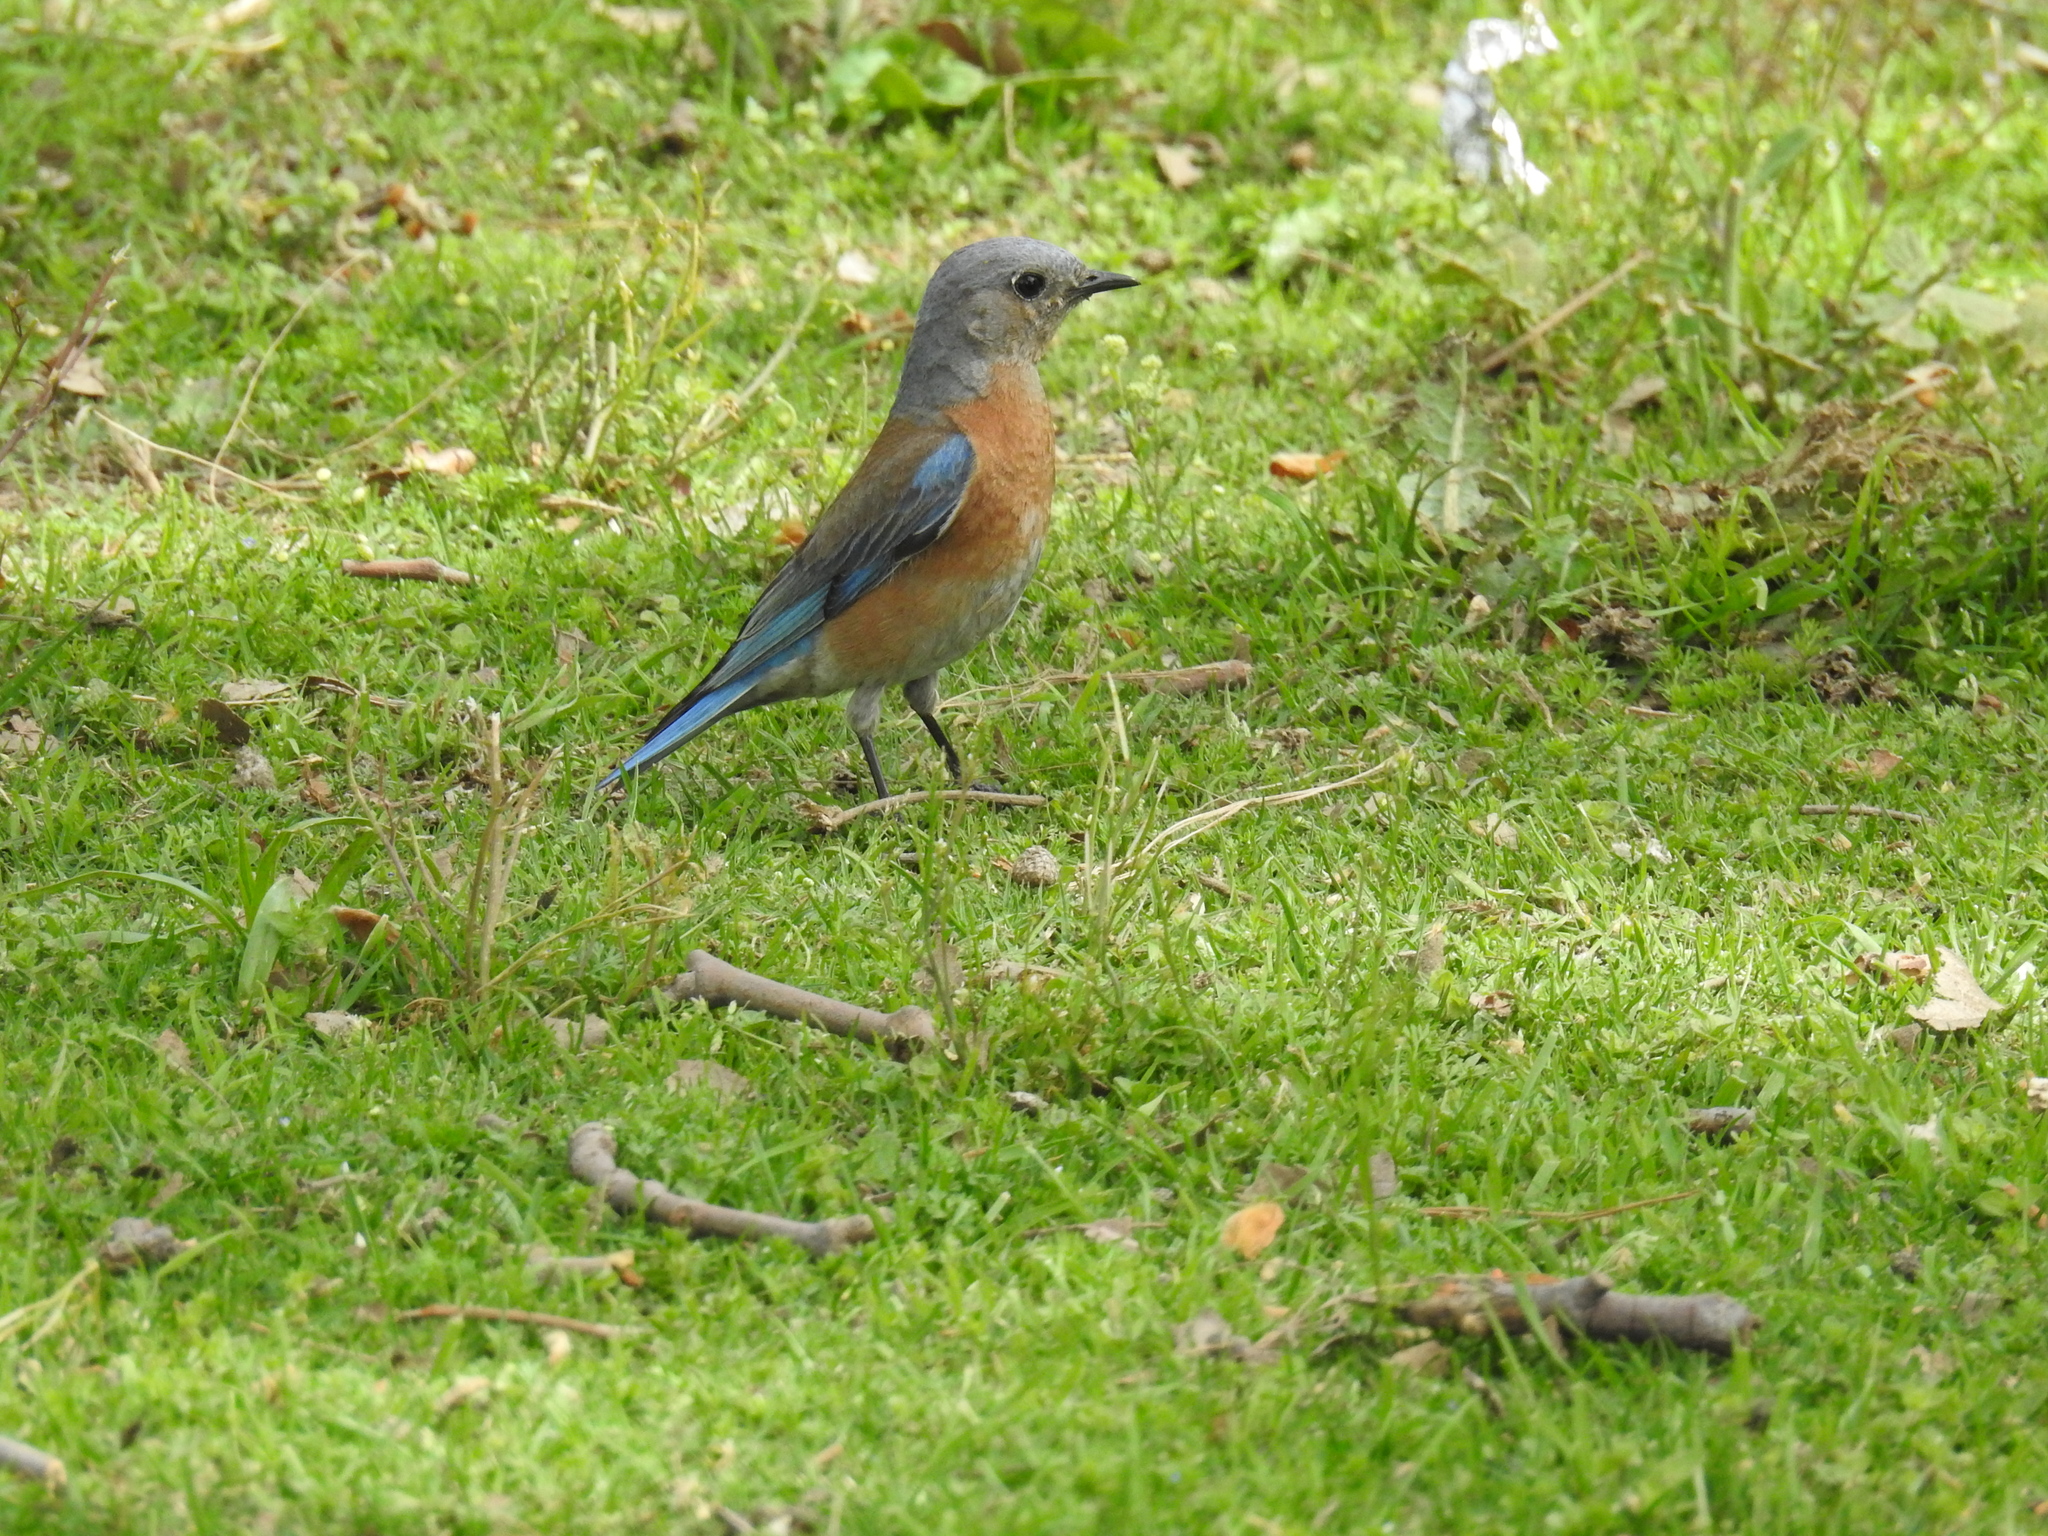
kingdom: Animalia
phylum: Chordata
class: Aves
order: Passeriformes
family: Turdidae
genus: Sialia
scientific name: Sialia mexicana
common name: Western bluebird
